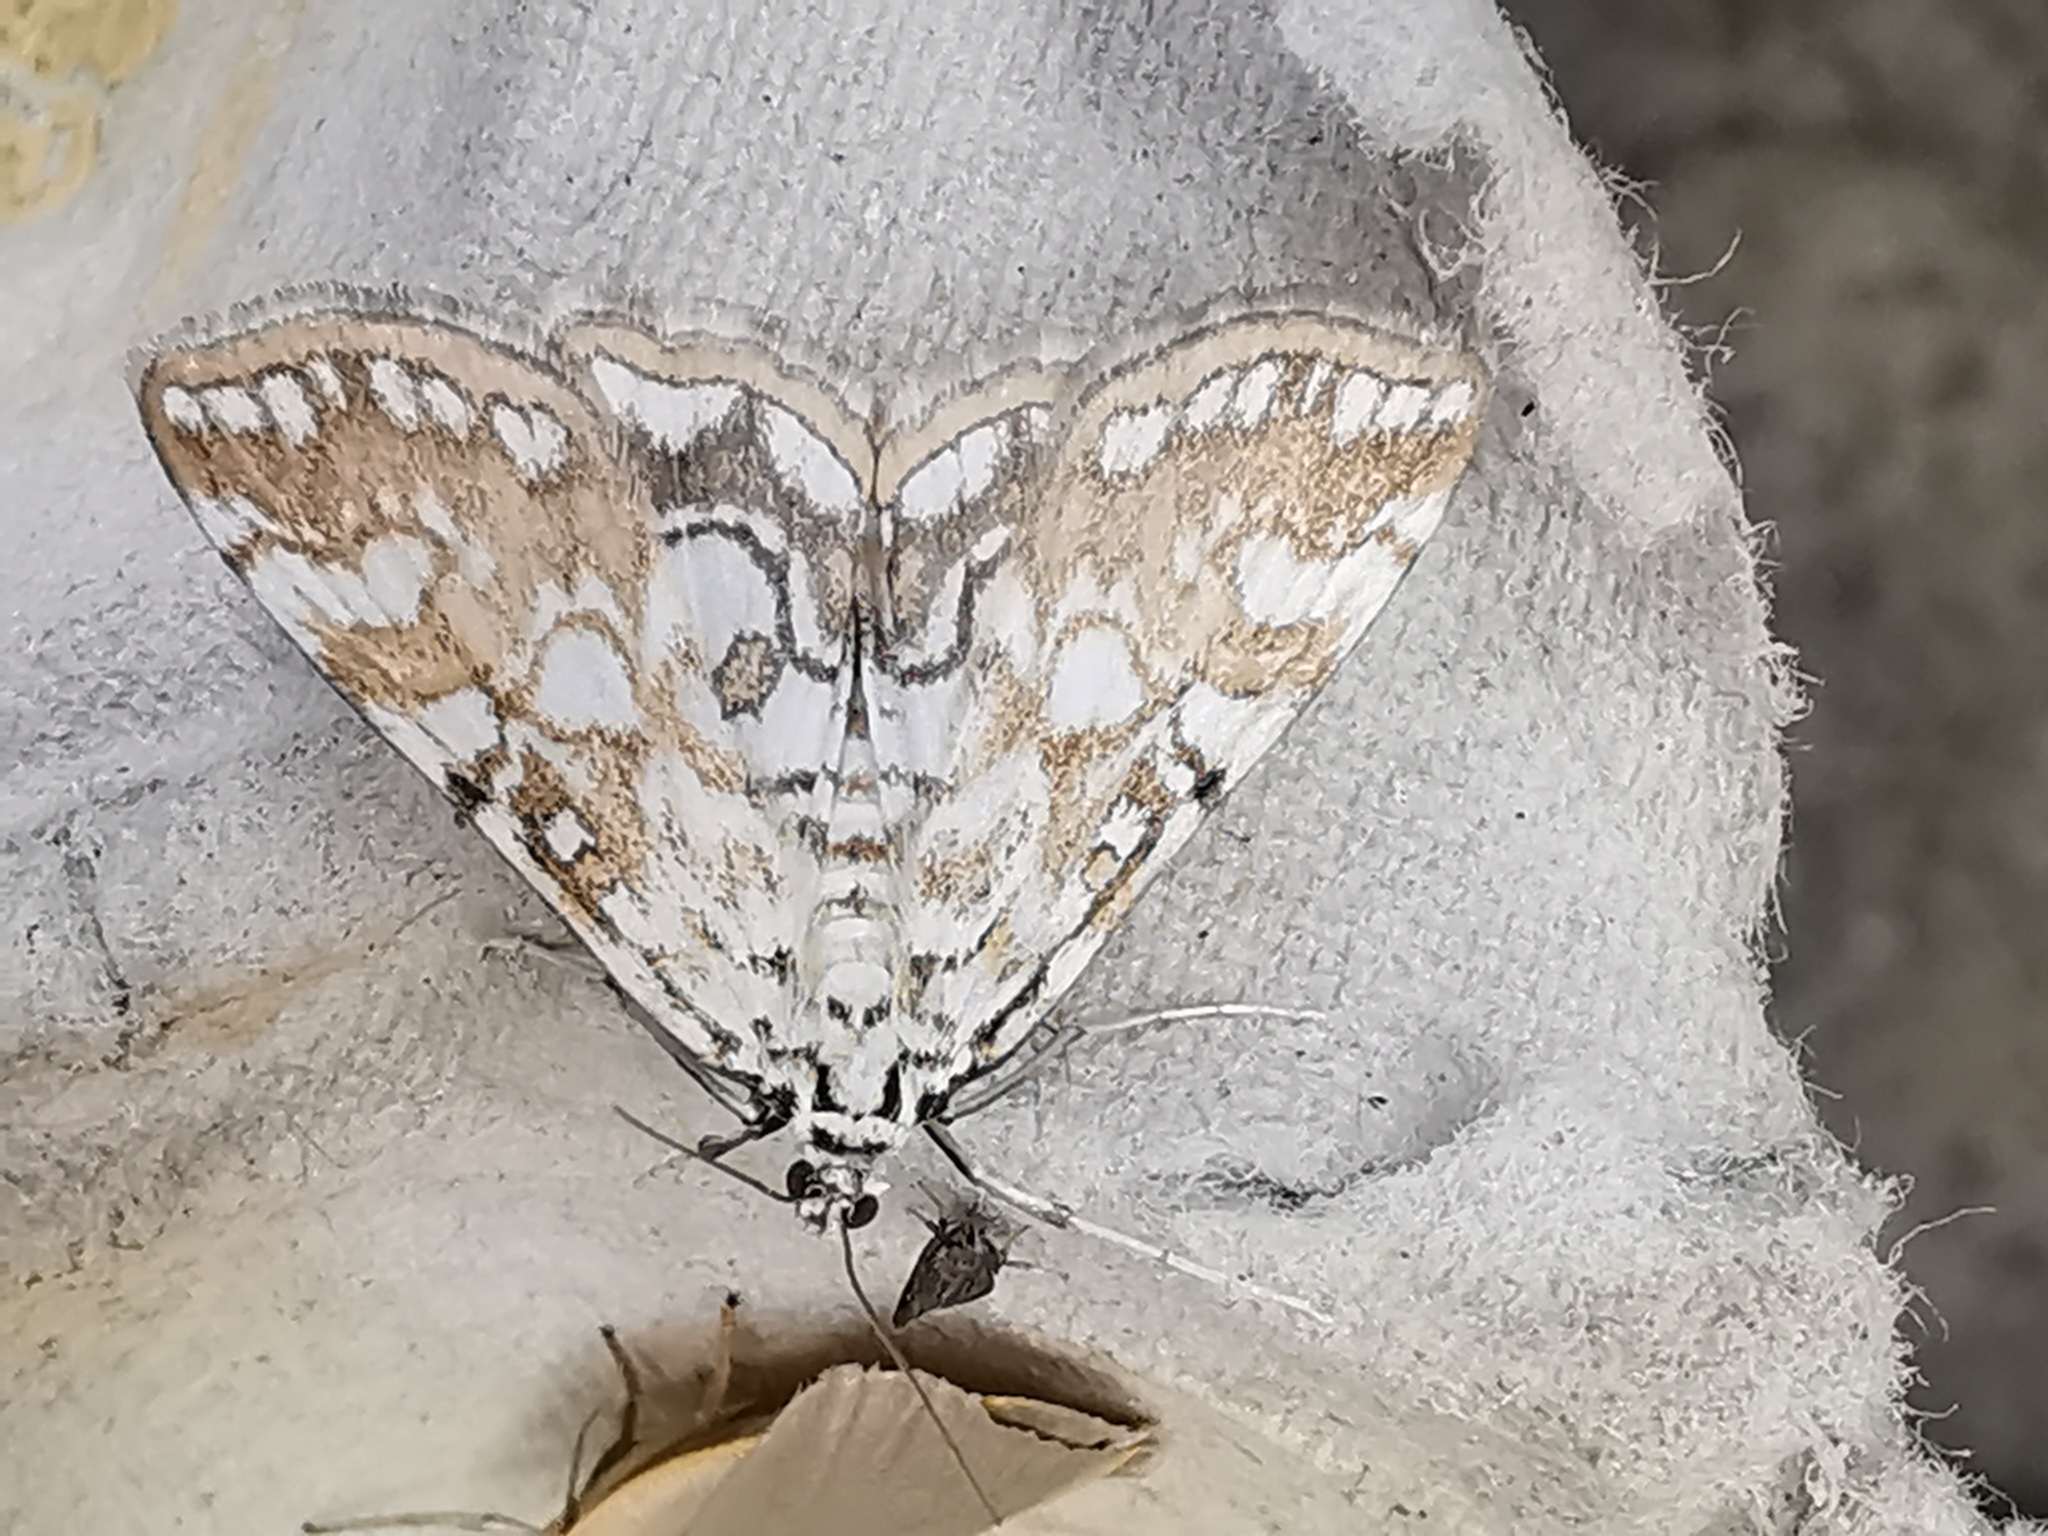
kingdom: Animalia
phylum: Arthropoda
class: Insecta
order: Lepidoptera
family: Crambidae
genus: Elophila
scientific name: Elophila nymphaeata
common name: Brown china-mark
